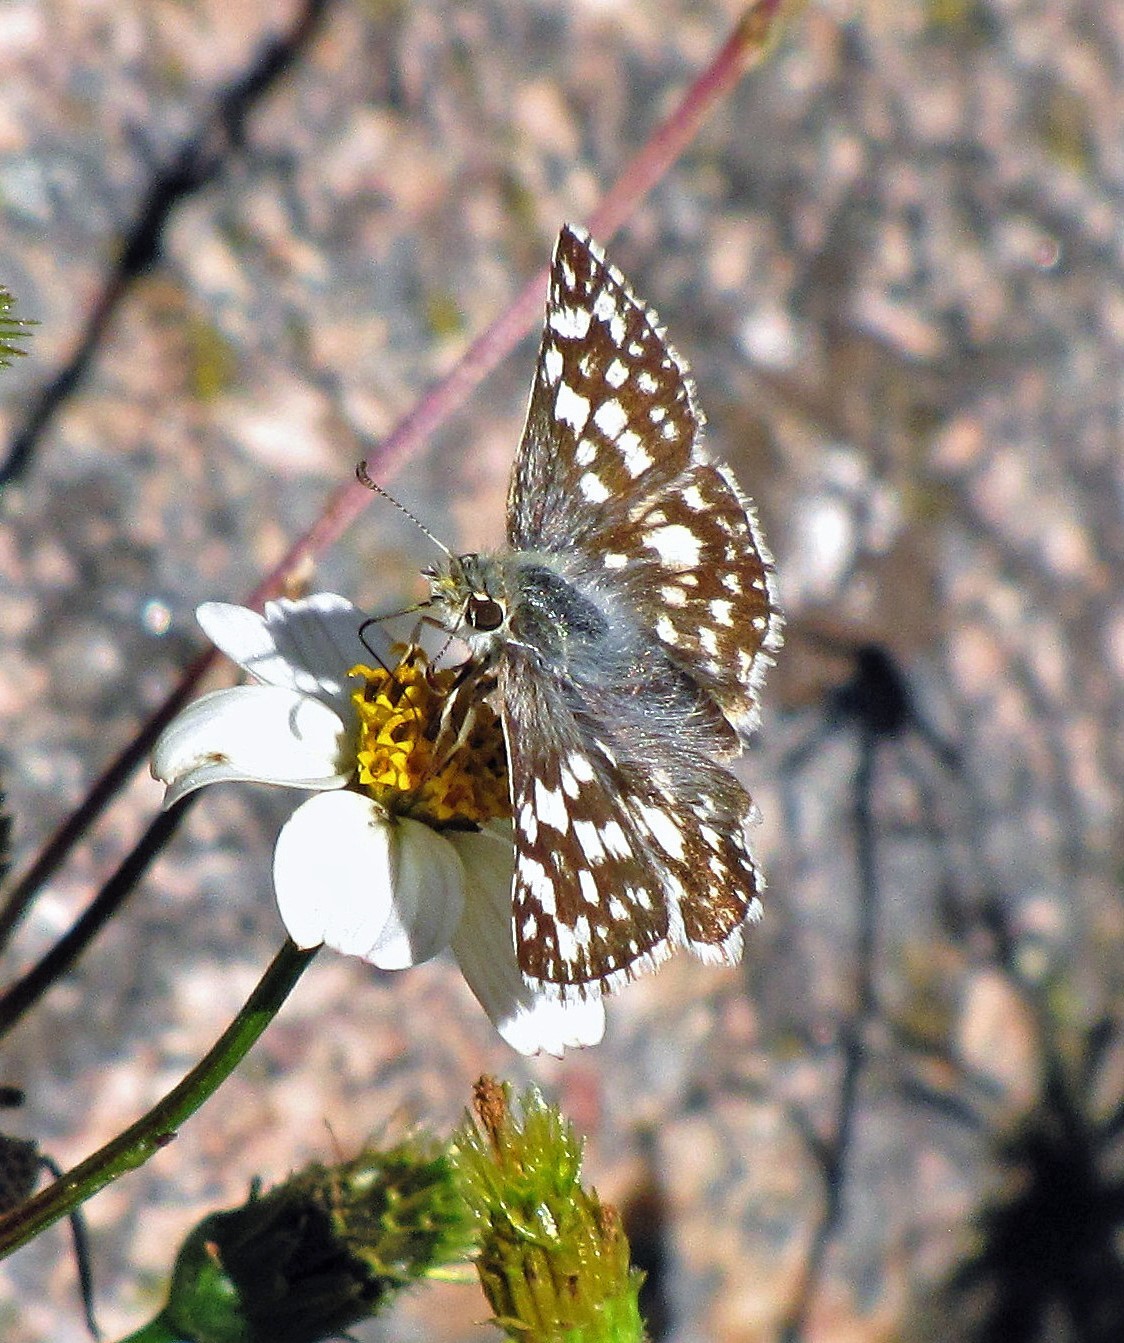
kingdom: Animalia
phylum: Arthropoda
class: Insecta
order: Lepidoptera
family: Hesperiidae
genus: Heliopetes
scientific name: Heliopetes americanus
